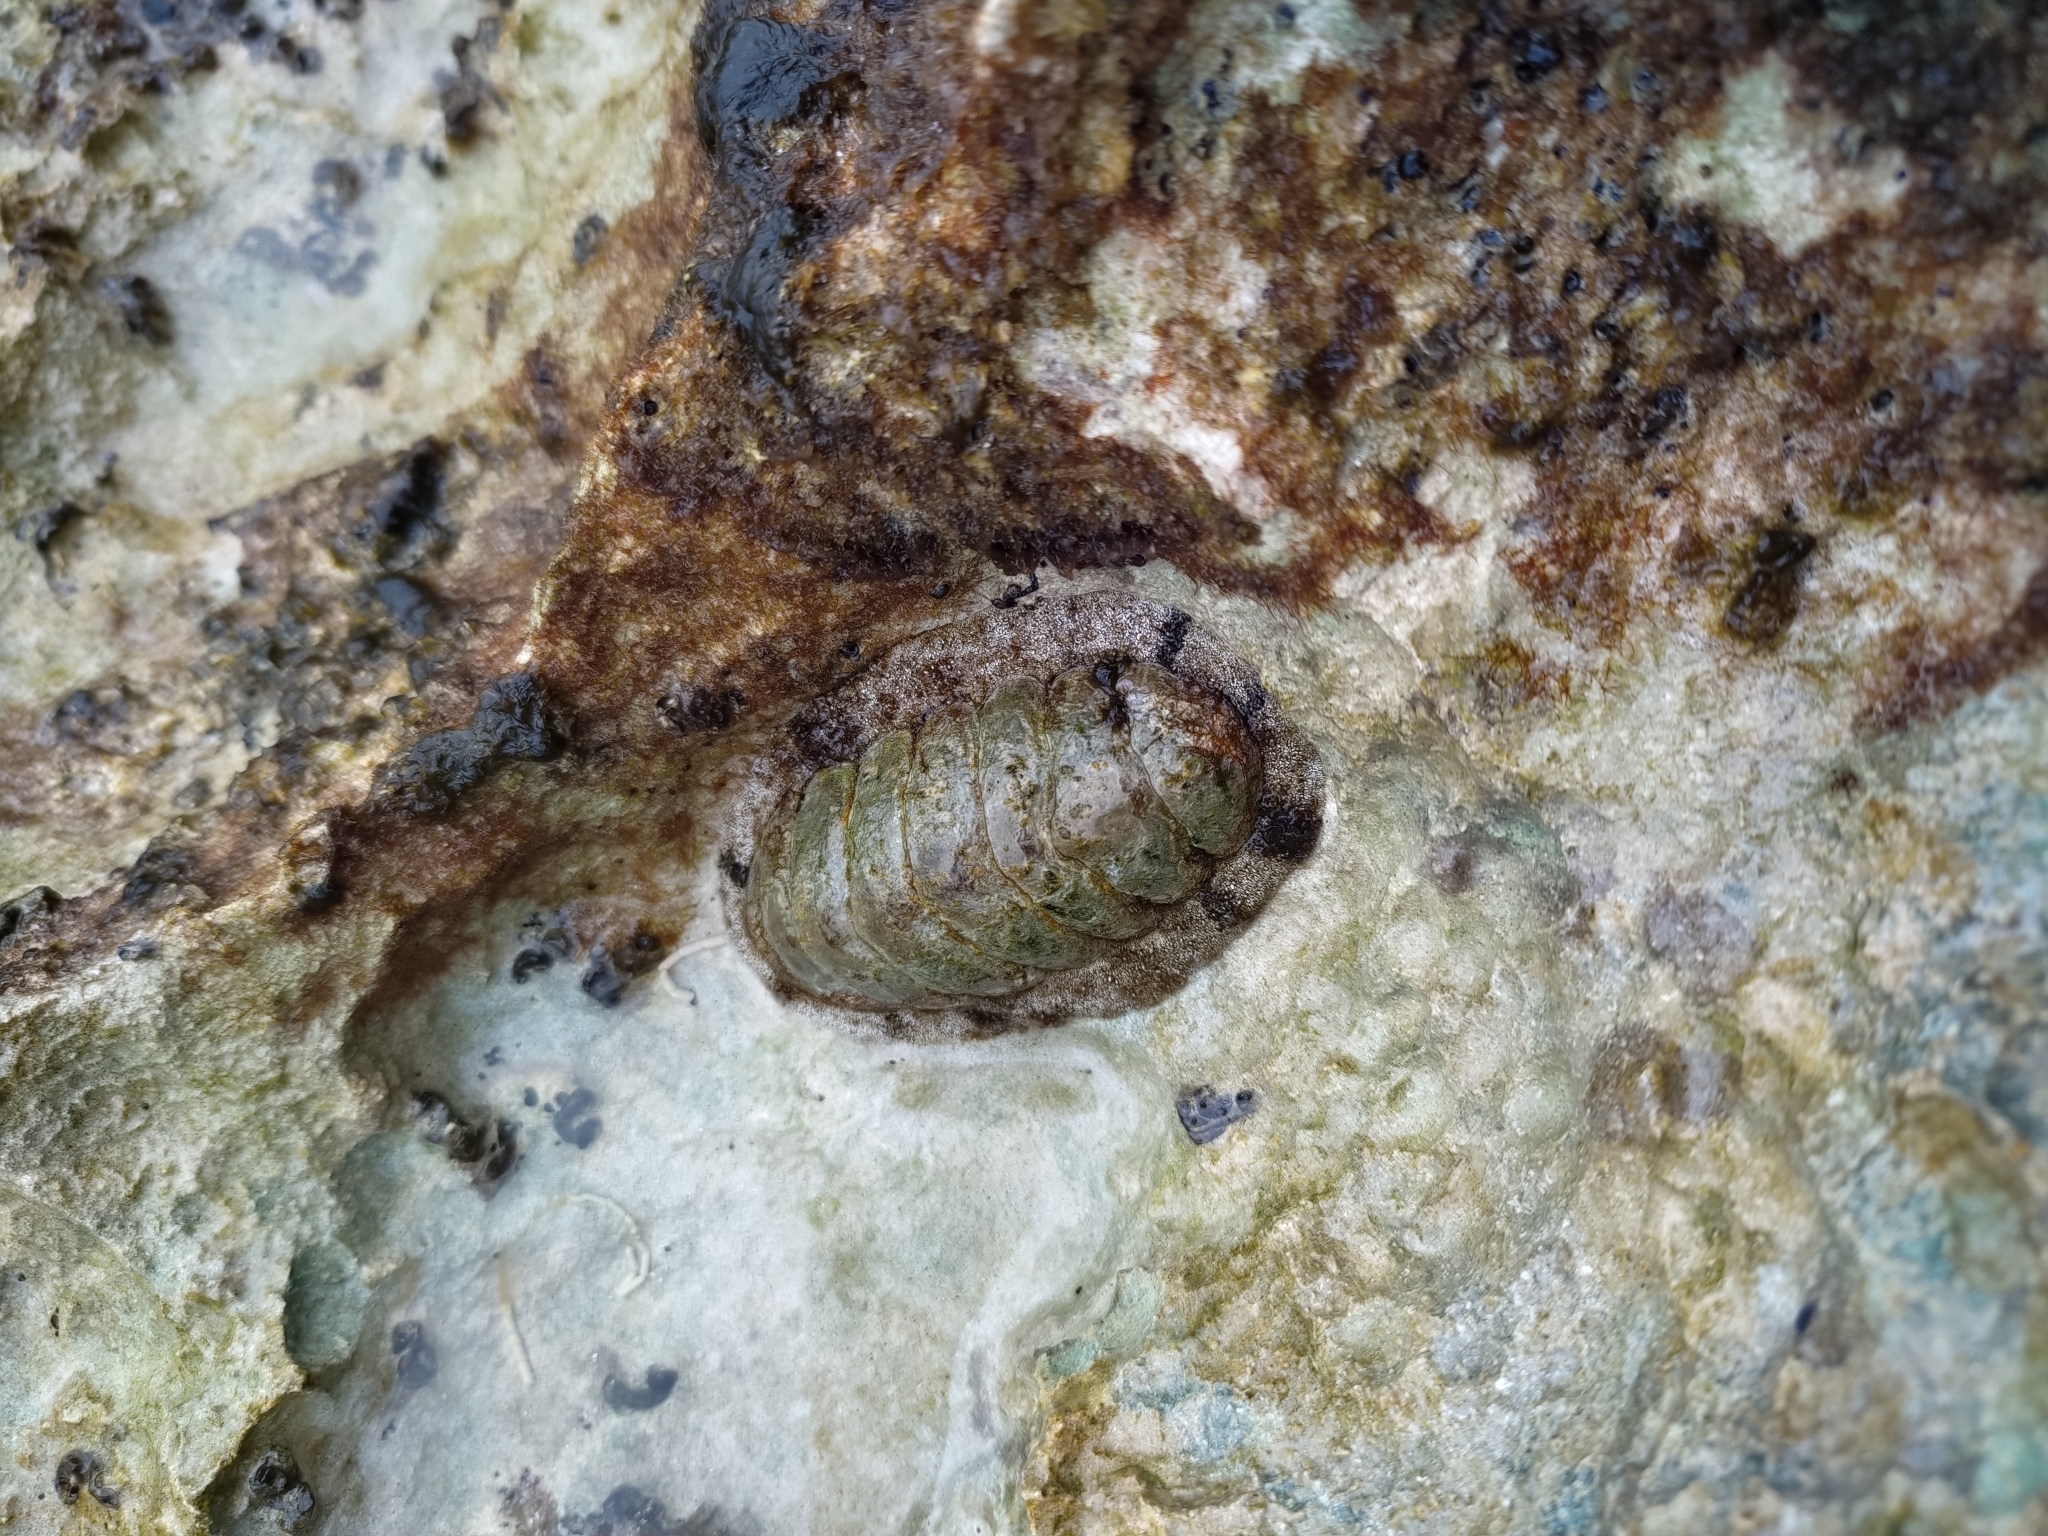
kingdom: Animalia
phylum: Mollusca
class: Polyplacophora
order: Chitonida
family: Chitonidae
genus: Acanthopleura
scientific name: Acanthopleura granulata
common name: West indian fuzzy chiton
